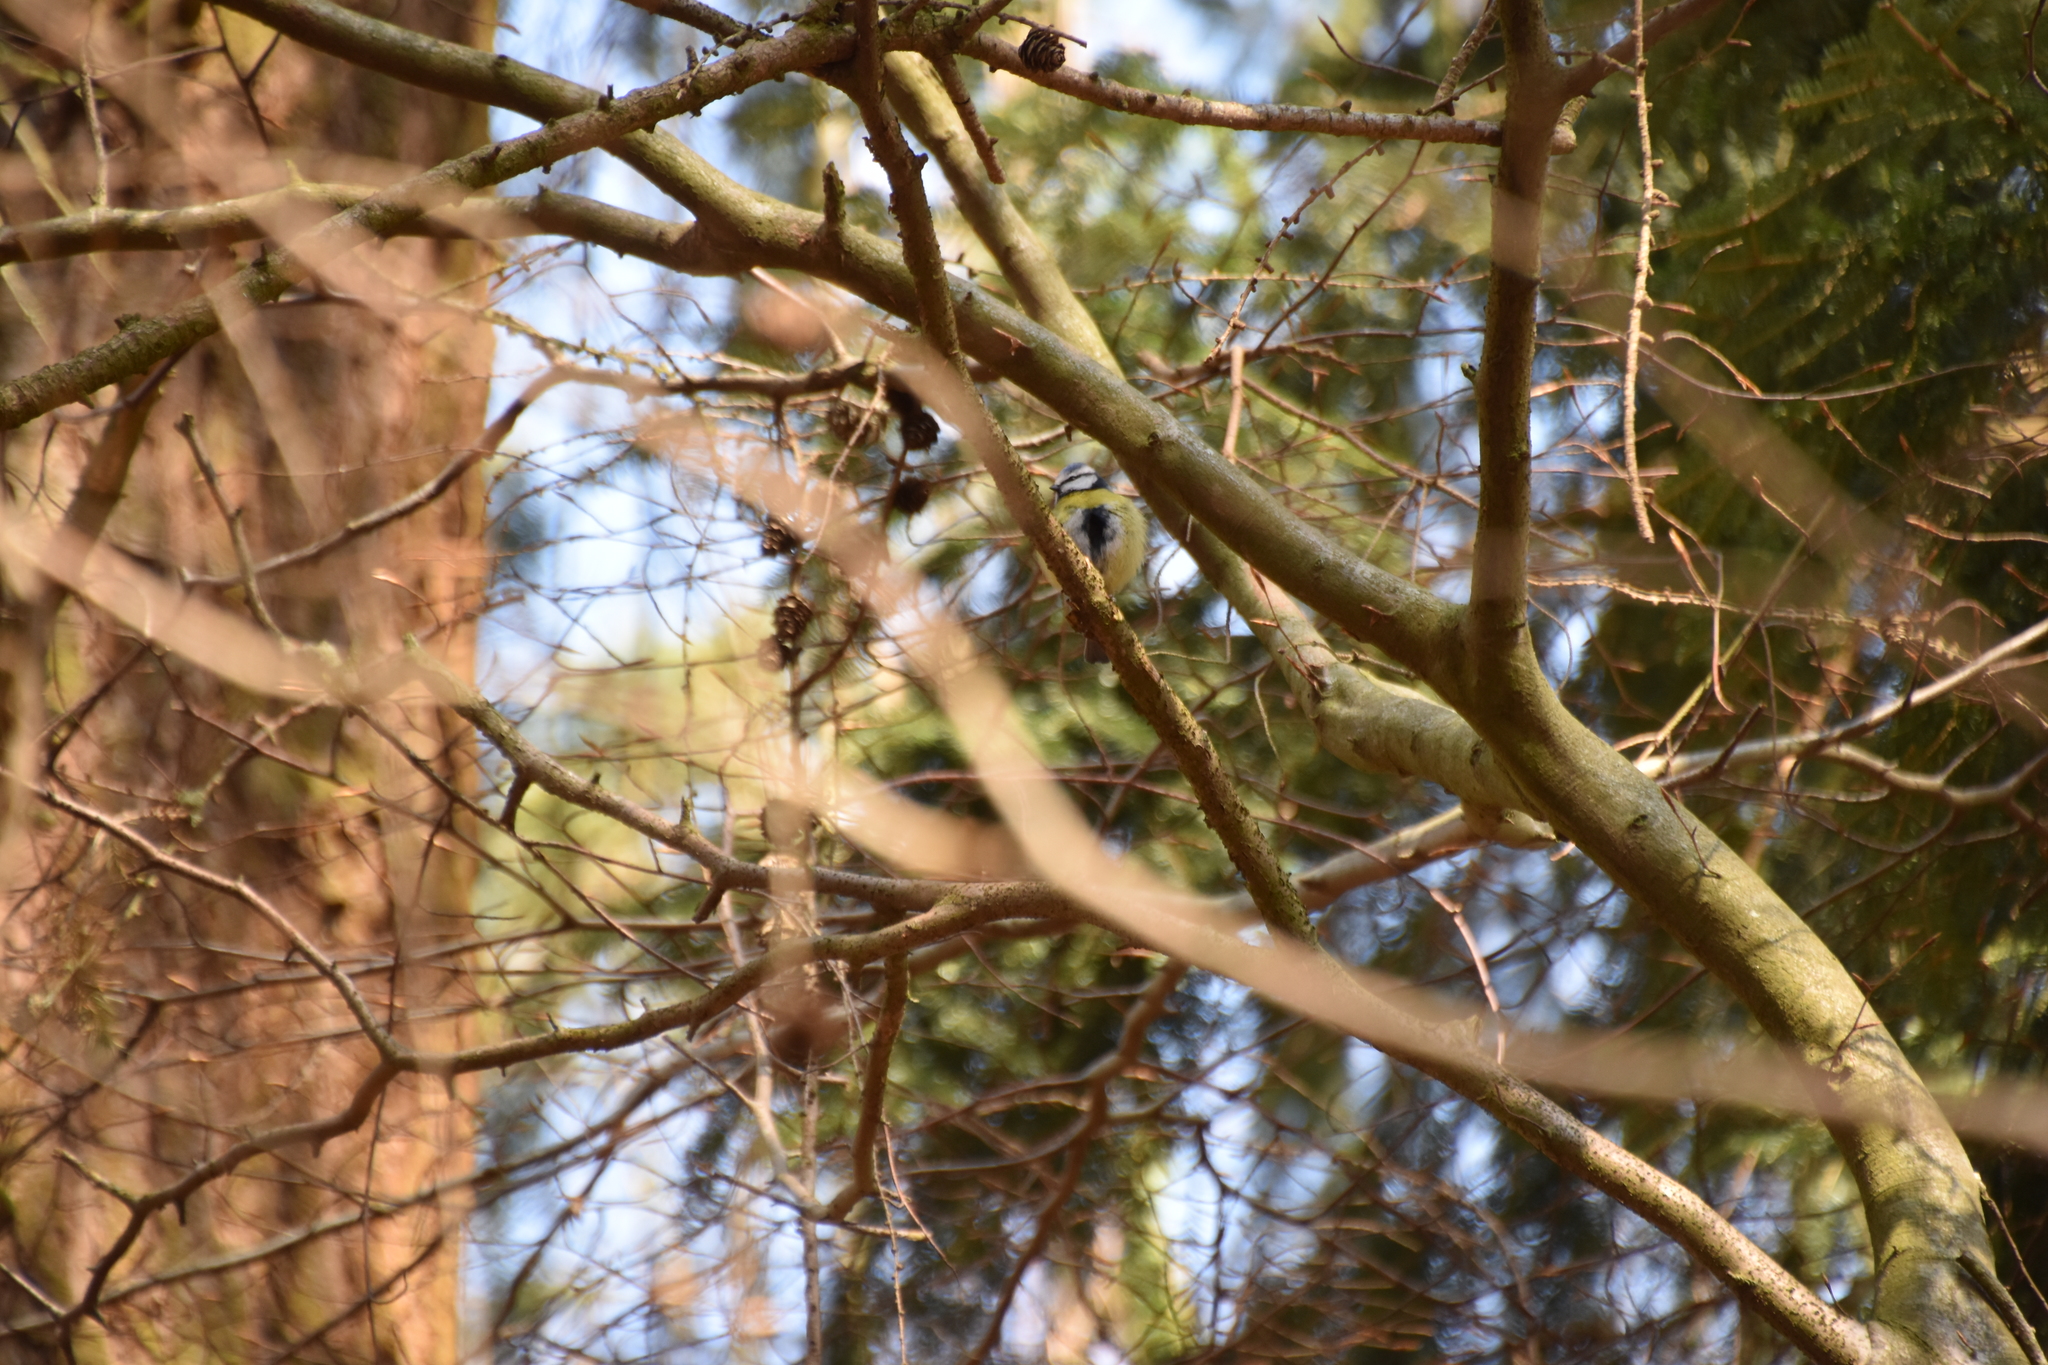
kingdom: Animalia
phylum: Chordata
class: Aves
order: Passeriformes
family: Paridae
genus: Cyanistes
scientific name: Cyanistes caeruleus
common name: Eurasian blue tit
